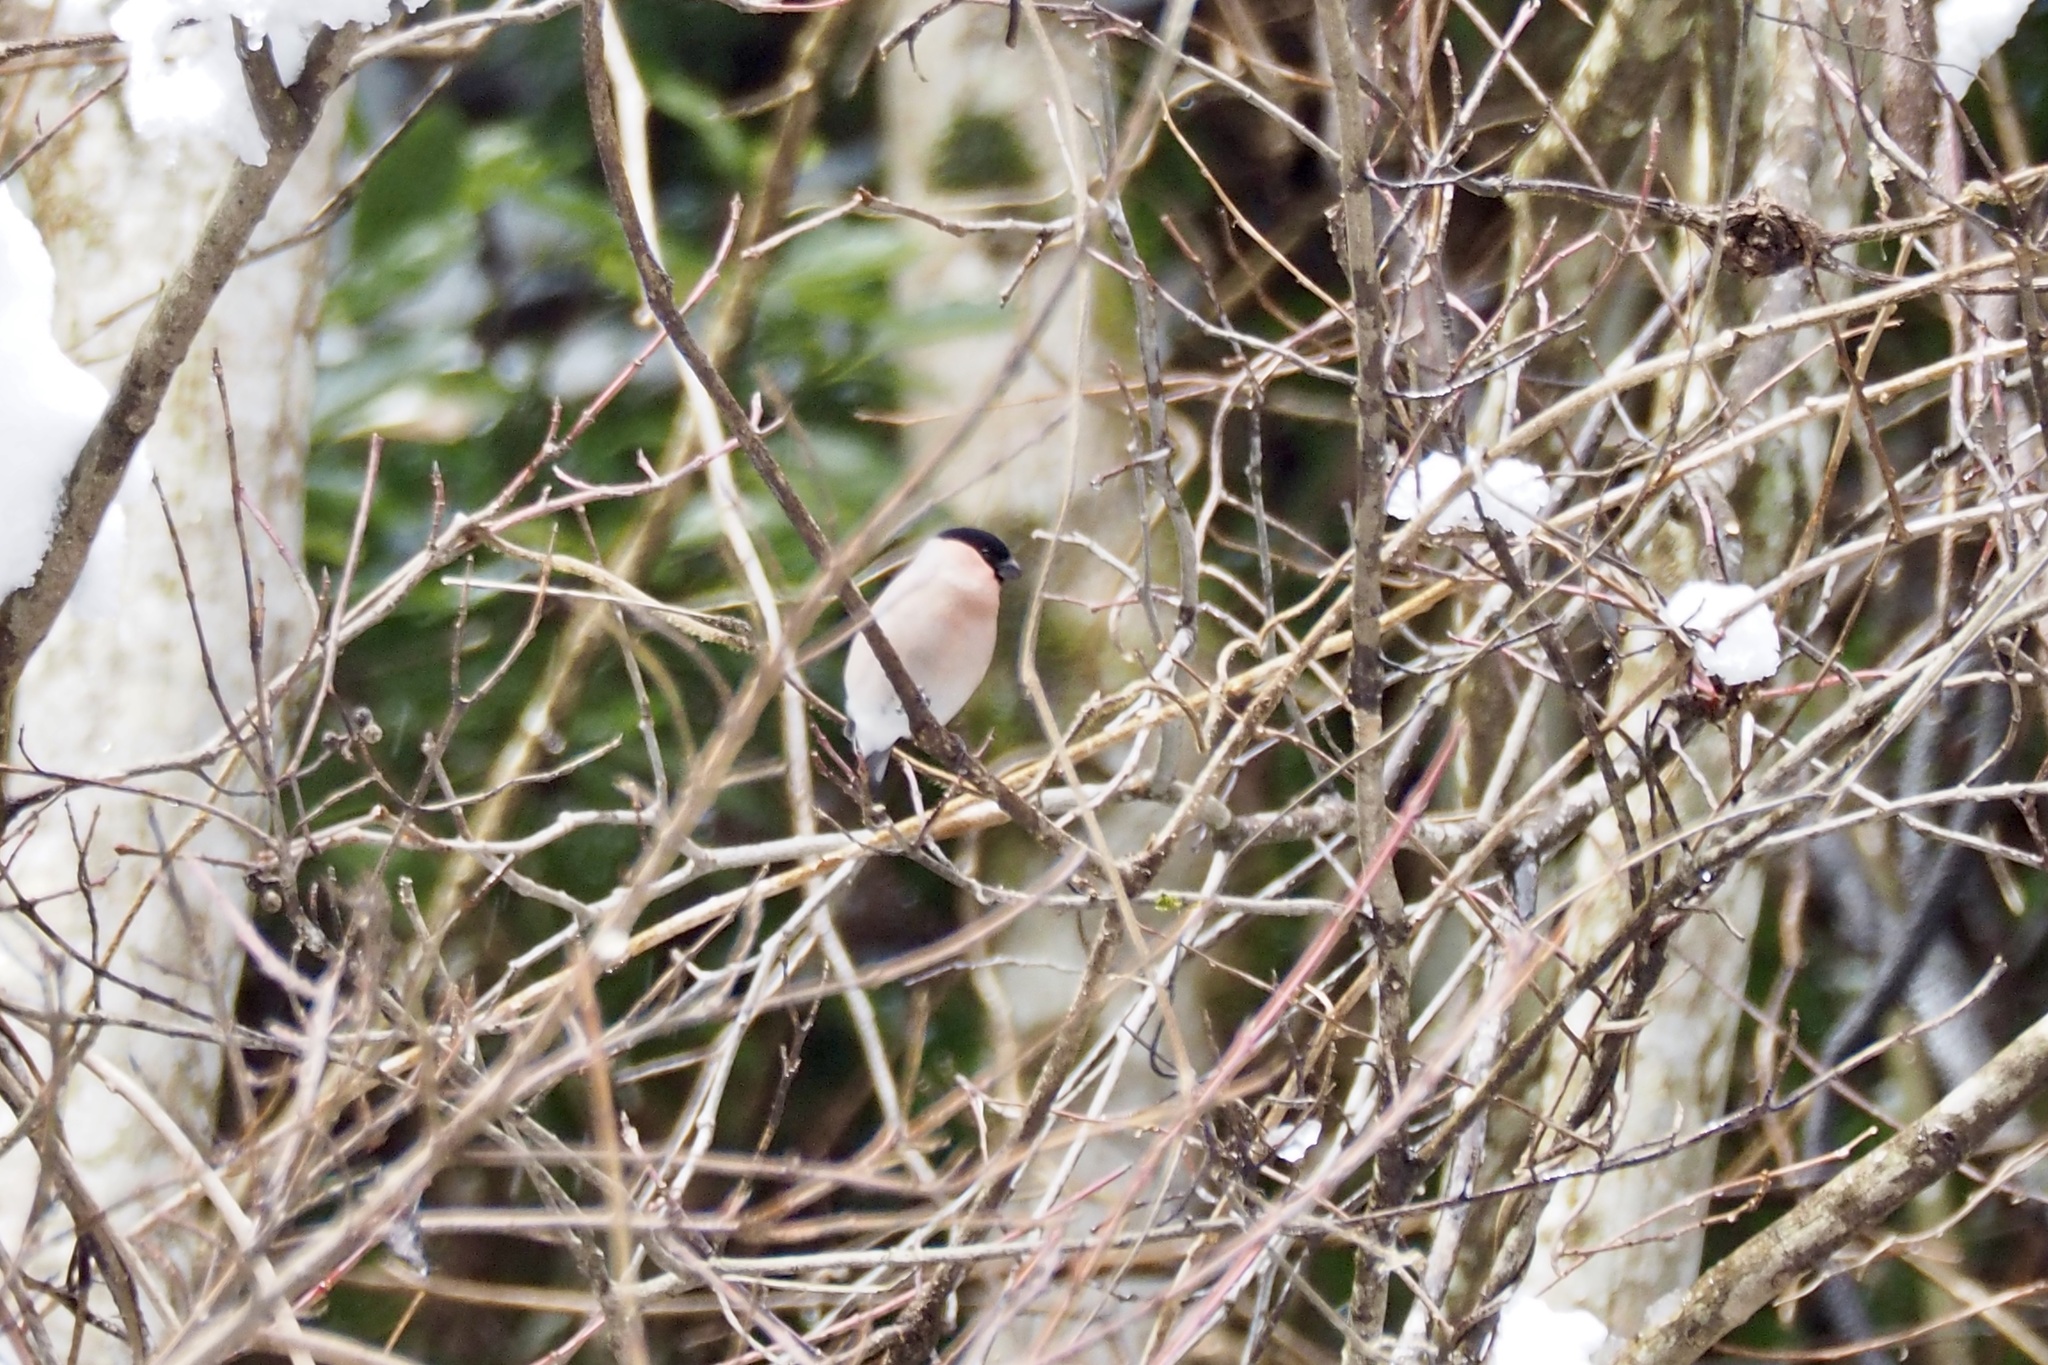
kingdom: Animalia
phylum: Chordata
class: Aves
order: Passeriformes
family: Fringillidae
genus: Pyrrhula
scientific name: Pyrrhula pyrrhula
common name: Eurasian bullfinch
